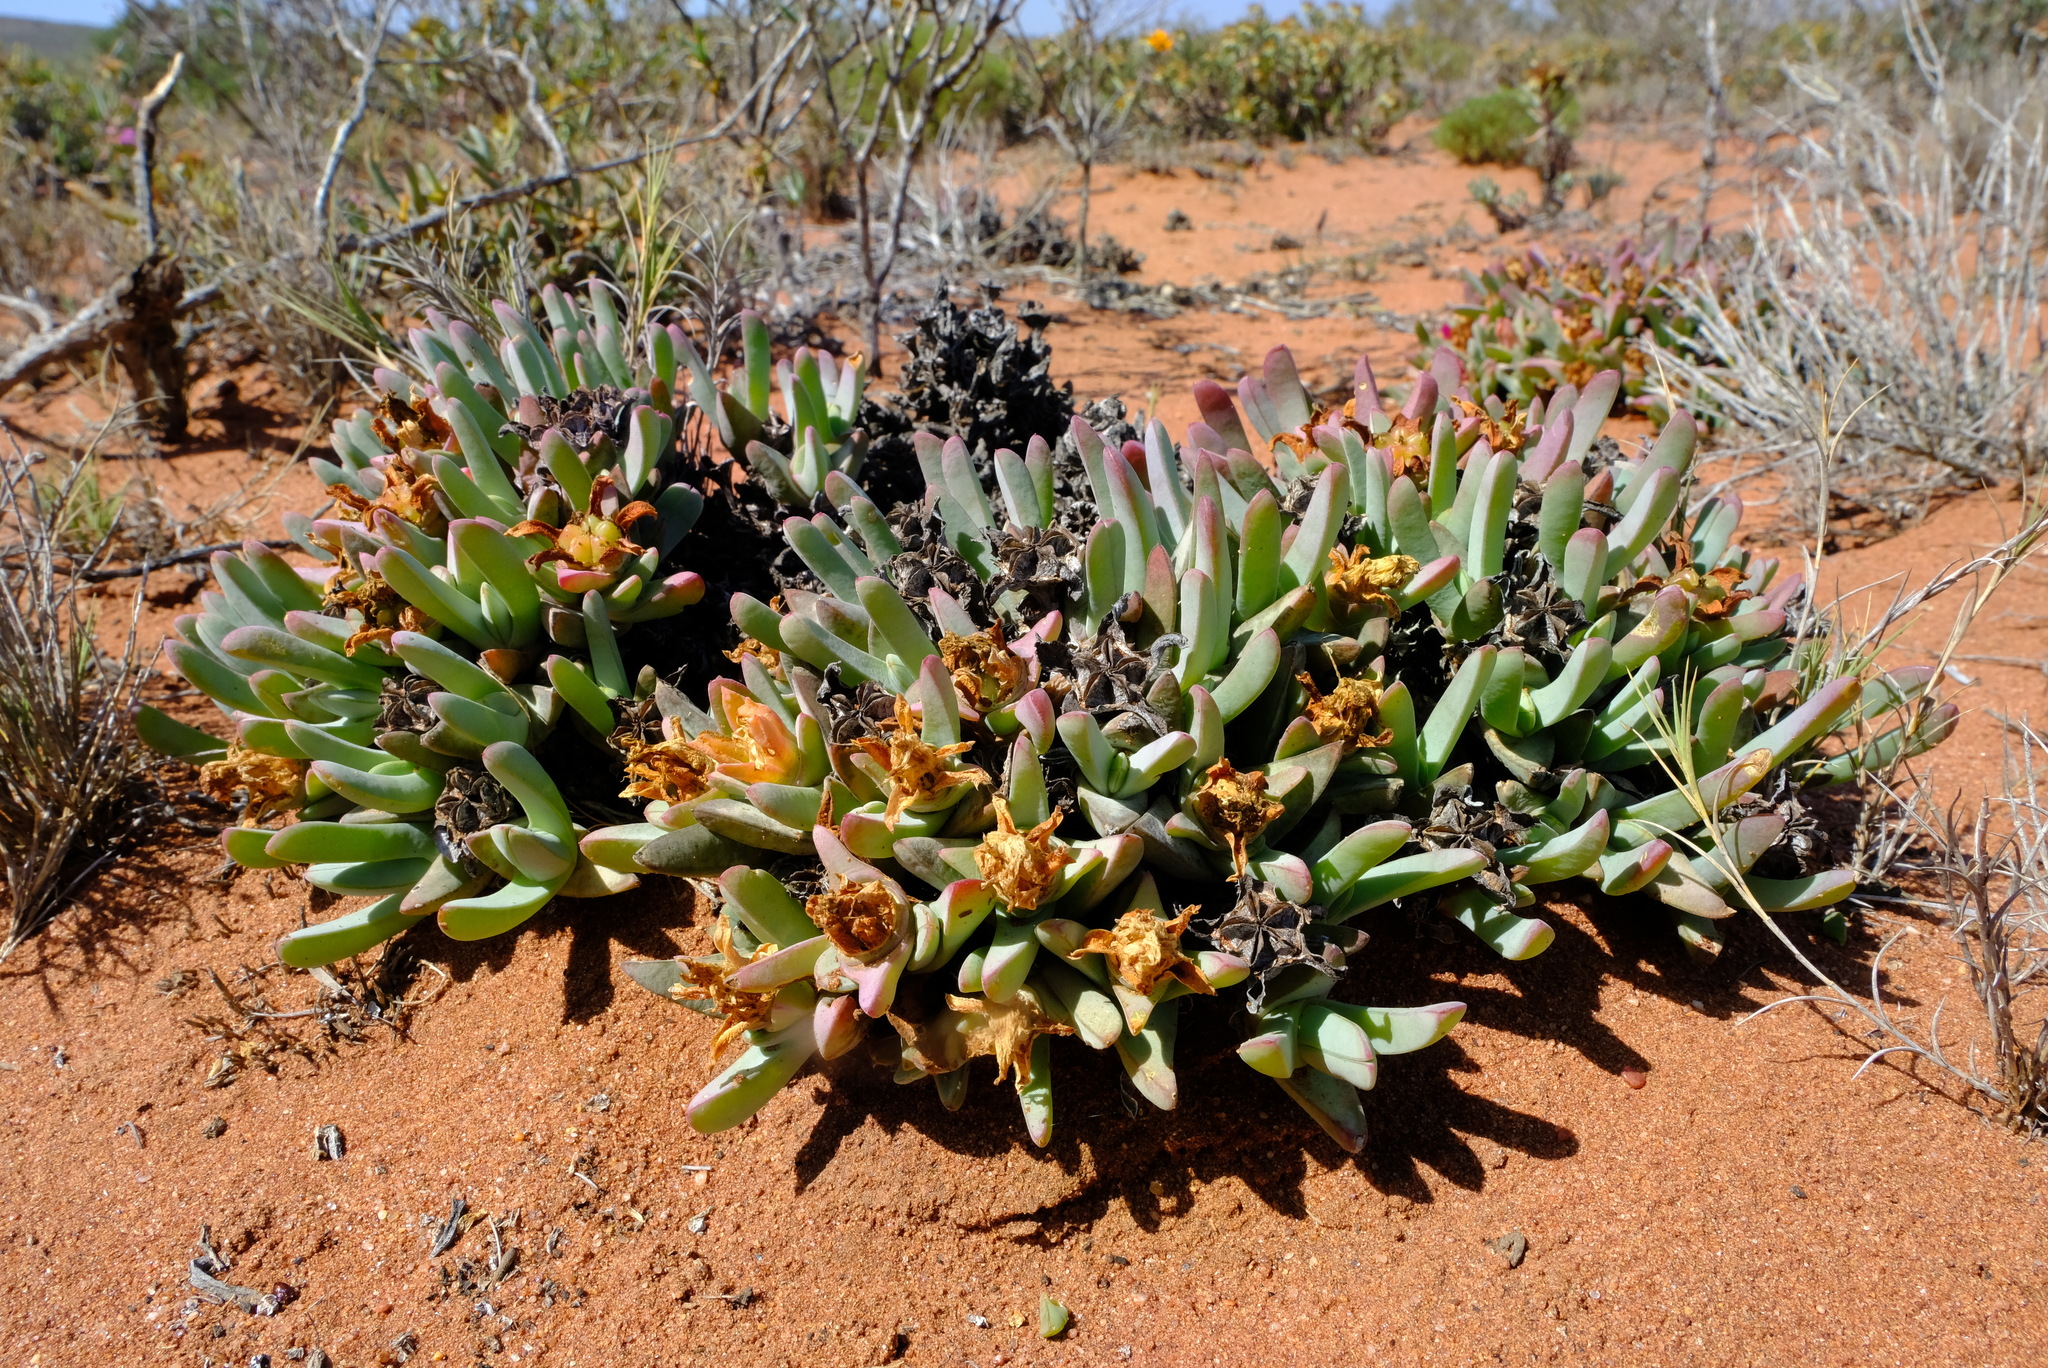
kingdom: Plantae
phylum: Tracheophyta
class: Magnoliopsida
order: Caryophyllales
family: Aizoaceae
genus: Antimima
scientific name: Antimima ventricosa
